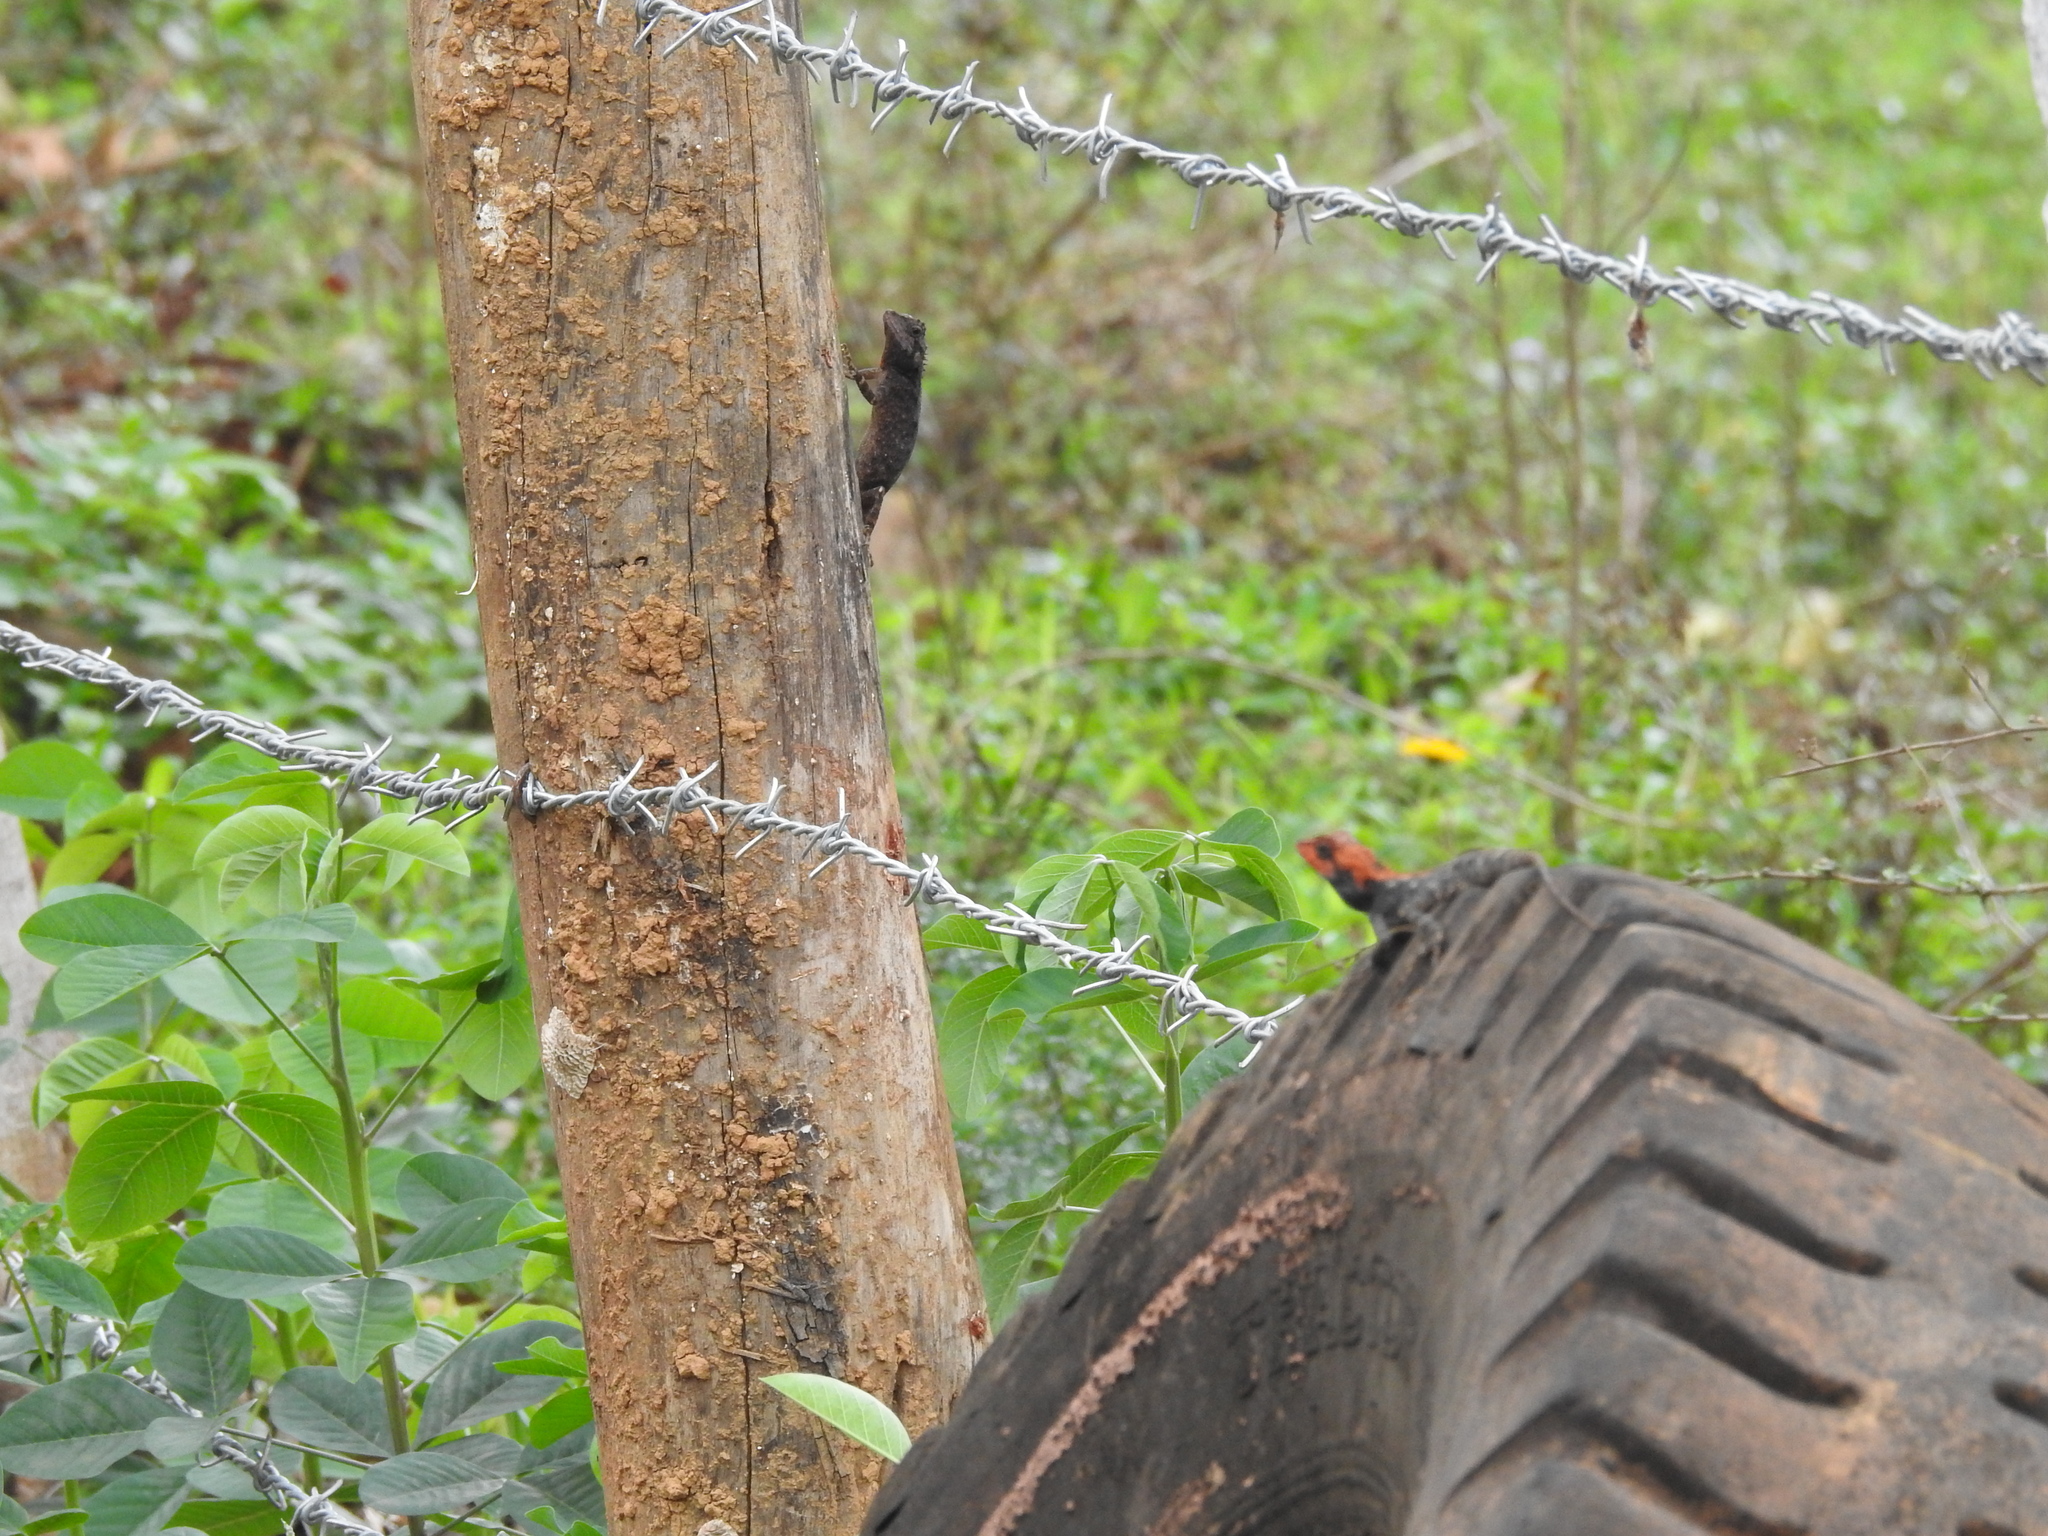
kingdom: Animalia
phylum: Chordata
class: Squamata
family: Agamidae
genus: Monilesaurus
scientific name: Monilesaurus rouxii
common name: Roux's forest lizard
